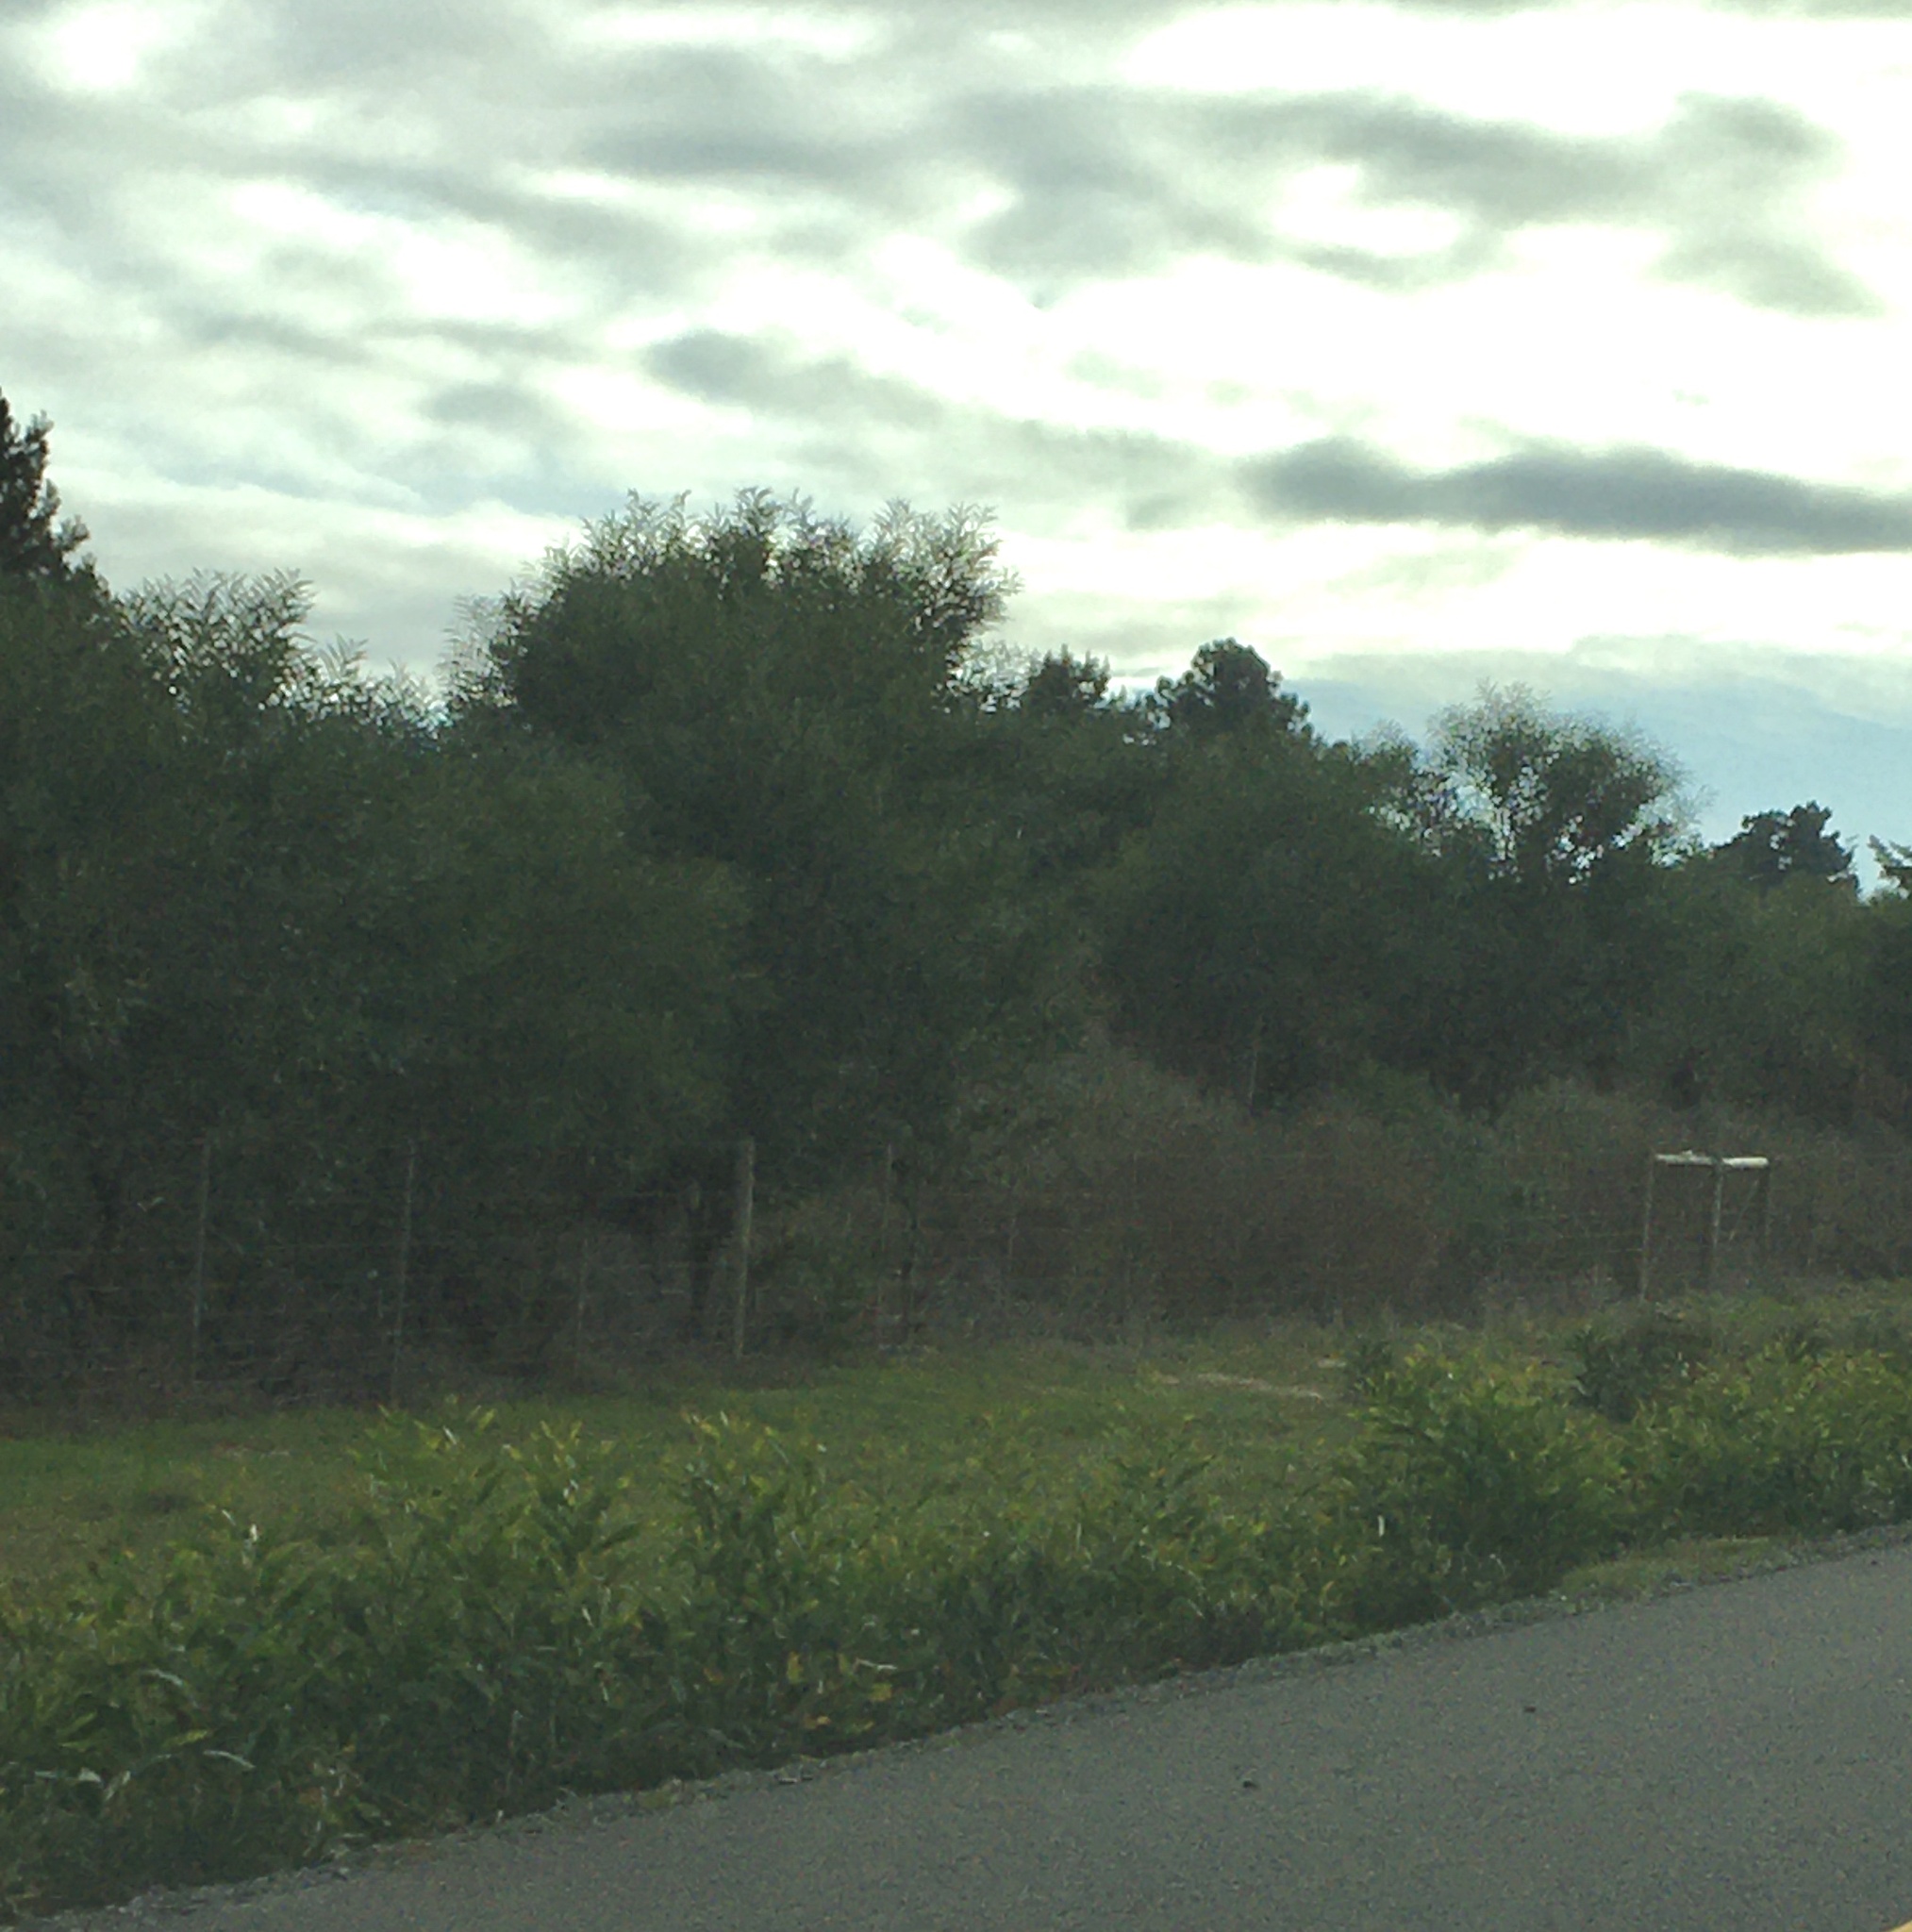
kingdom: Plantae
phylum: Tracheophyta
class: Magnoliopsida
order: Fabales
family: Fabaceae
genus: Acacia
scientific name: Acacia saligna
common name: Orange wattle
